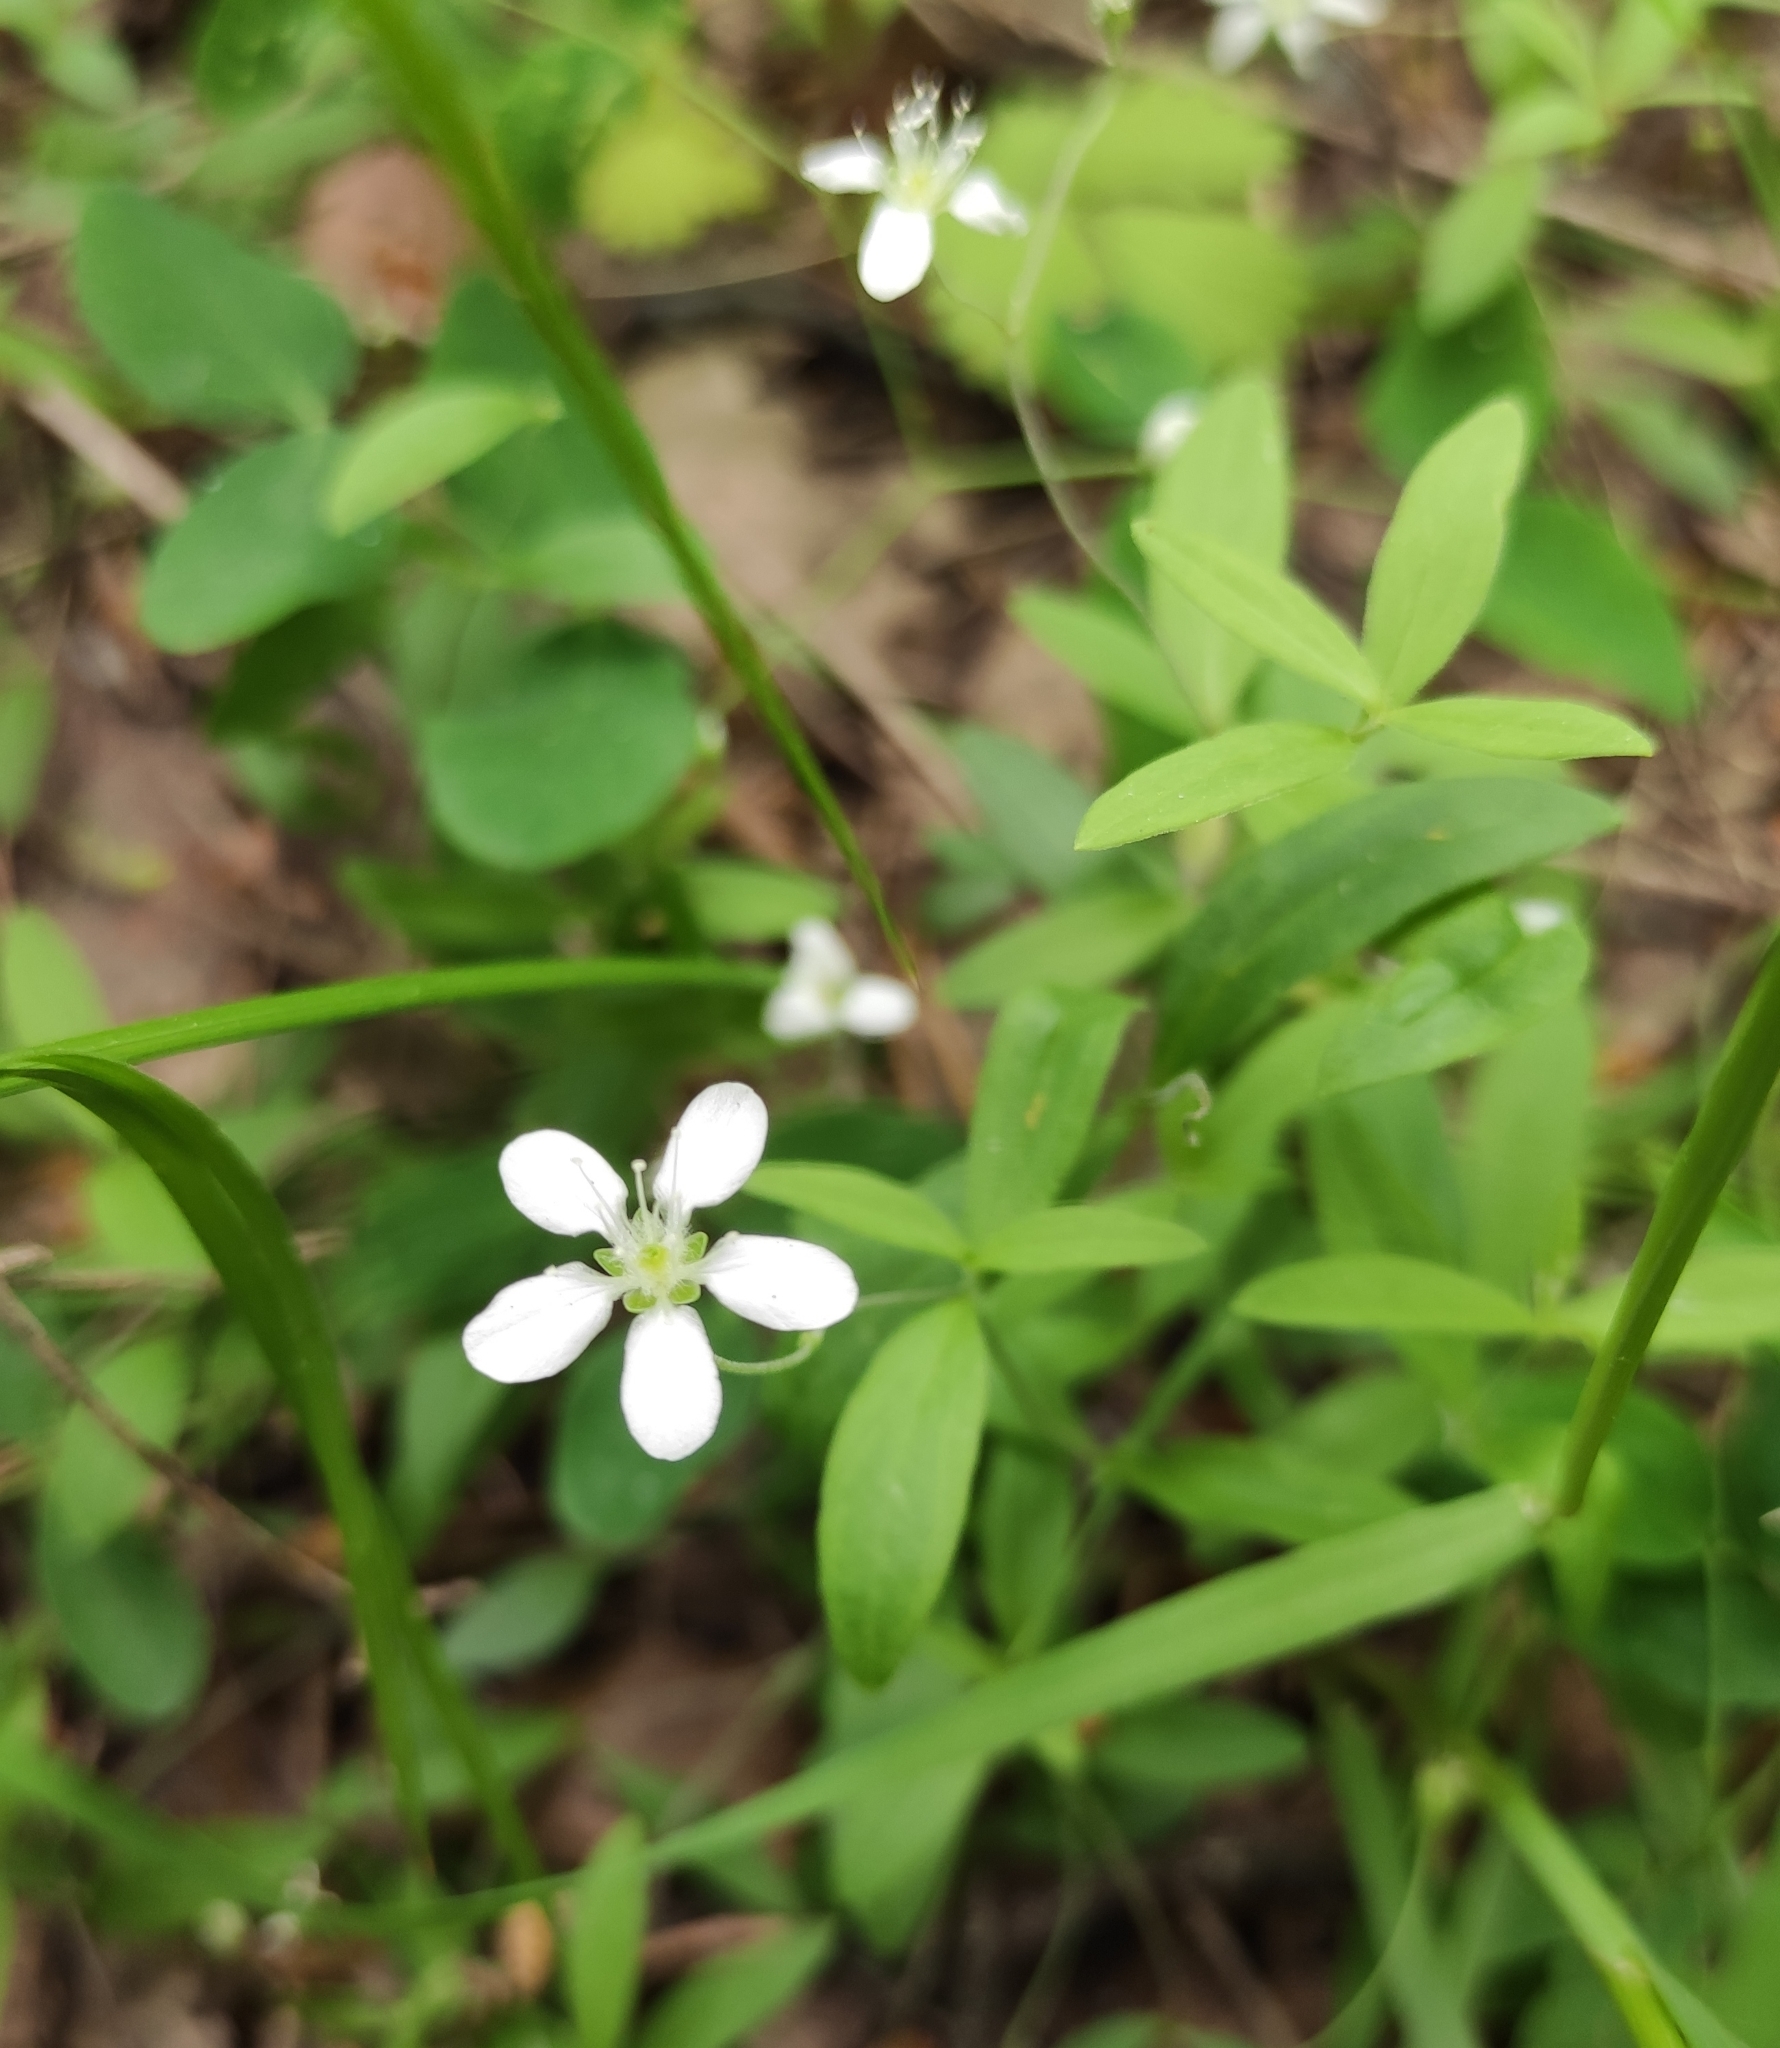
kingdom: Plantae
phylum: Tracheophyta
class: Magnoliopsida
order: Caryophyllales
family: Caryophyllaceae
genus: Moehringia
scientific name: Moehringia lateriflora
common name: Blunt-leaved sandwort
